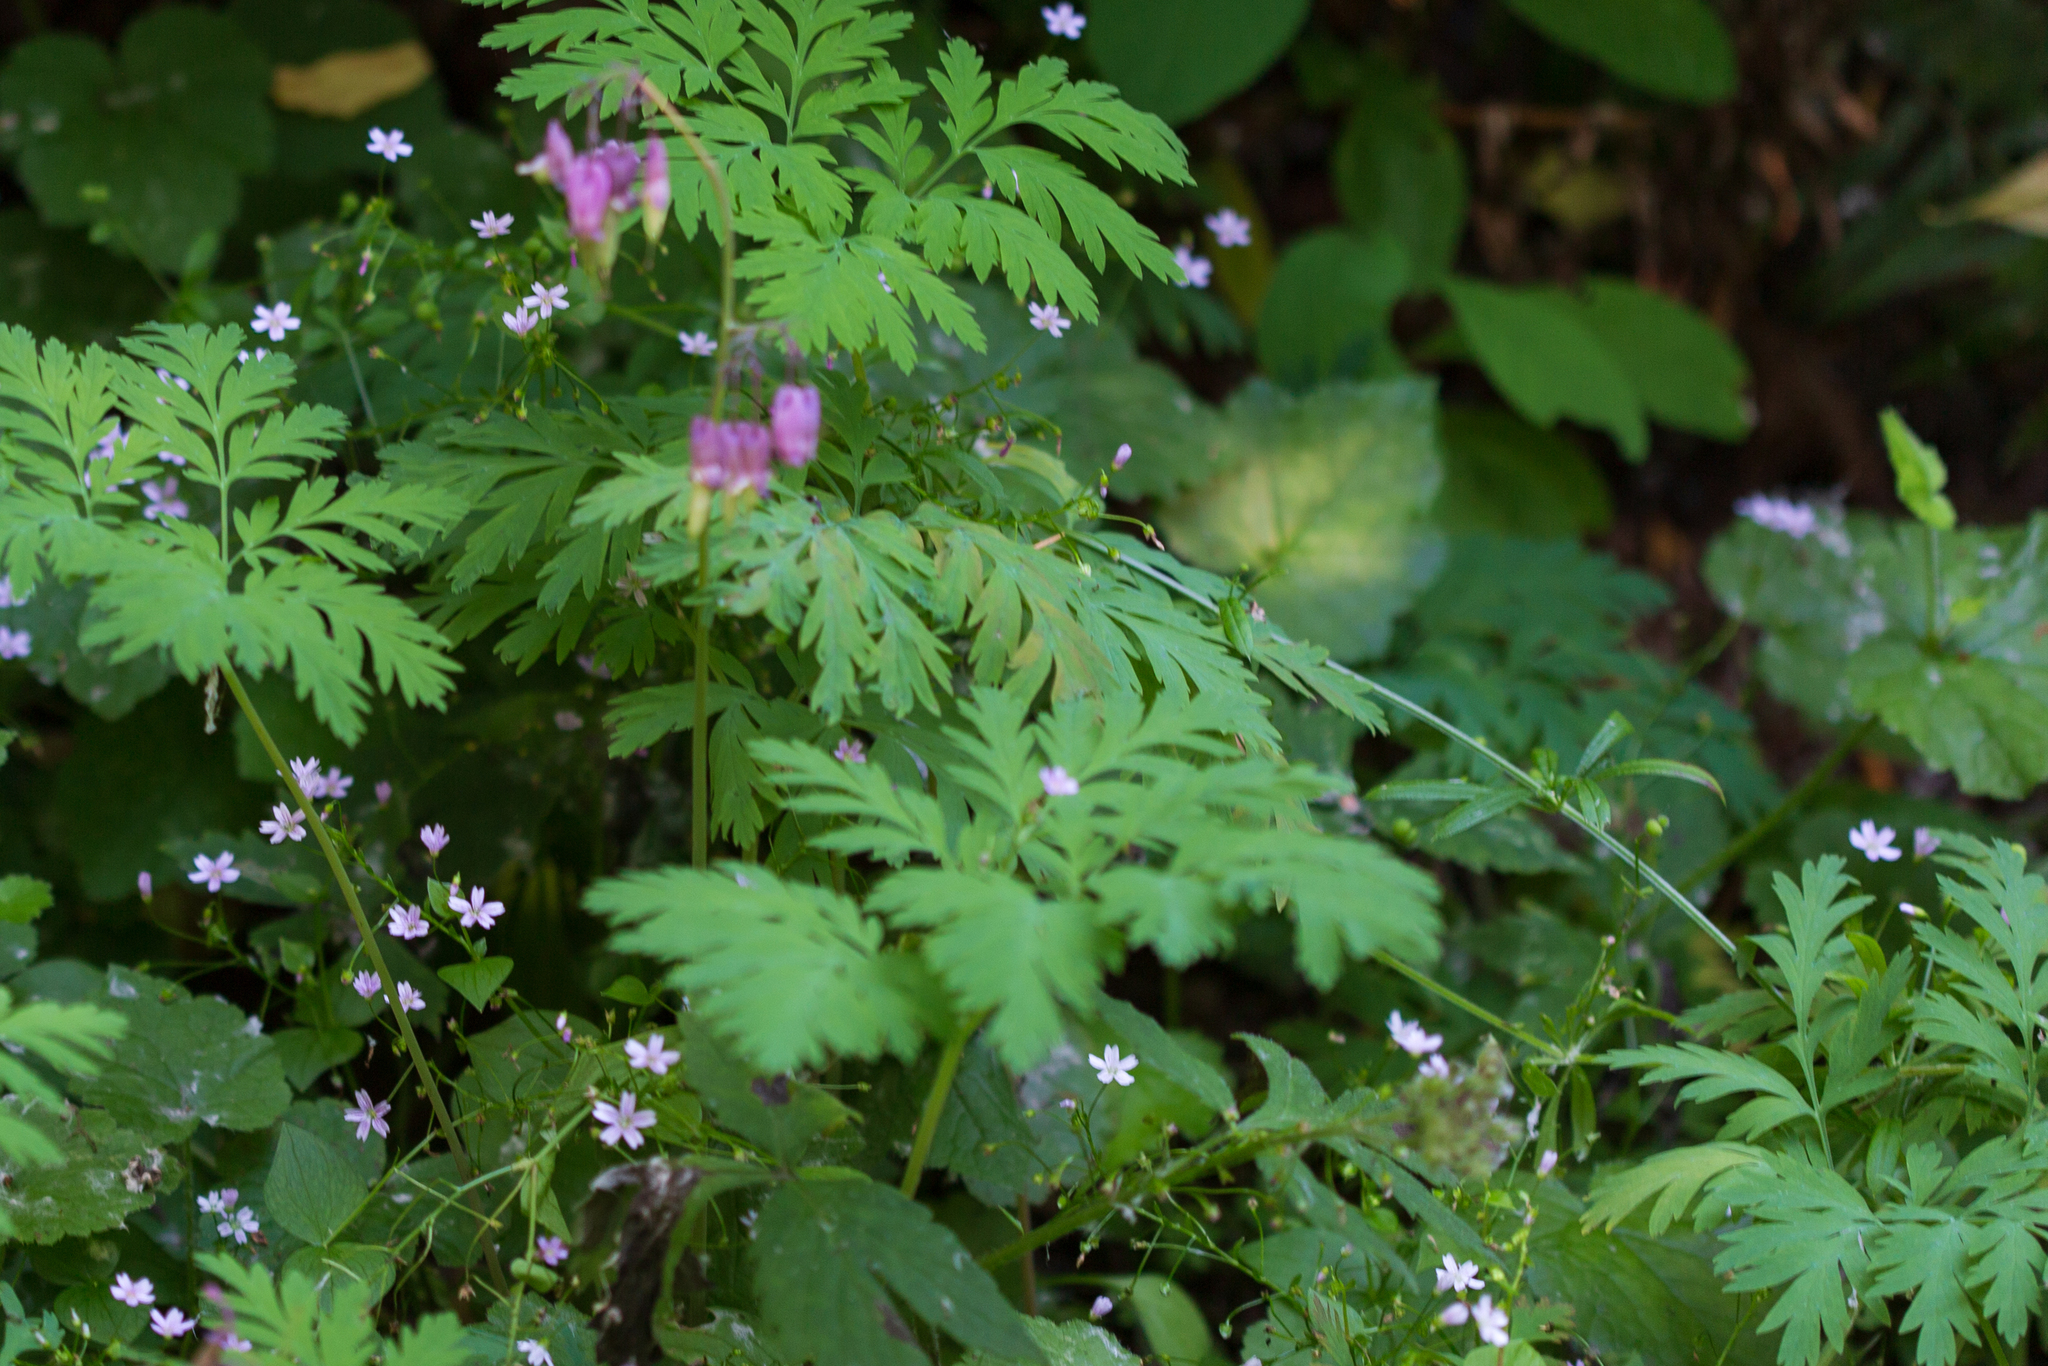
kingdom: Plantae
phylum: Tracheophyta
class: Magnoliopsida
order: Ranunculales
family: Papaveraceae
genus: Dicentra
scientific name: Dicentra formosa
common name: Bleeding-heart
